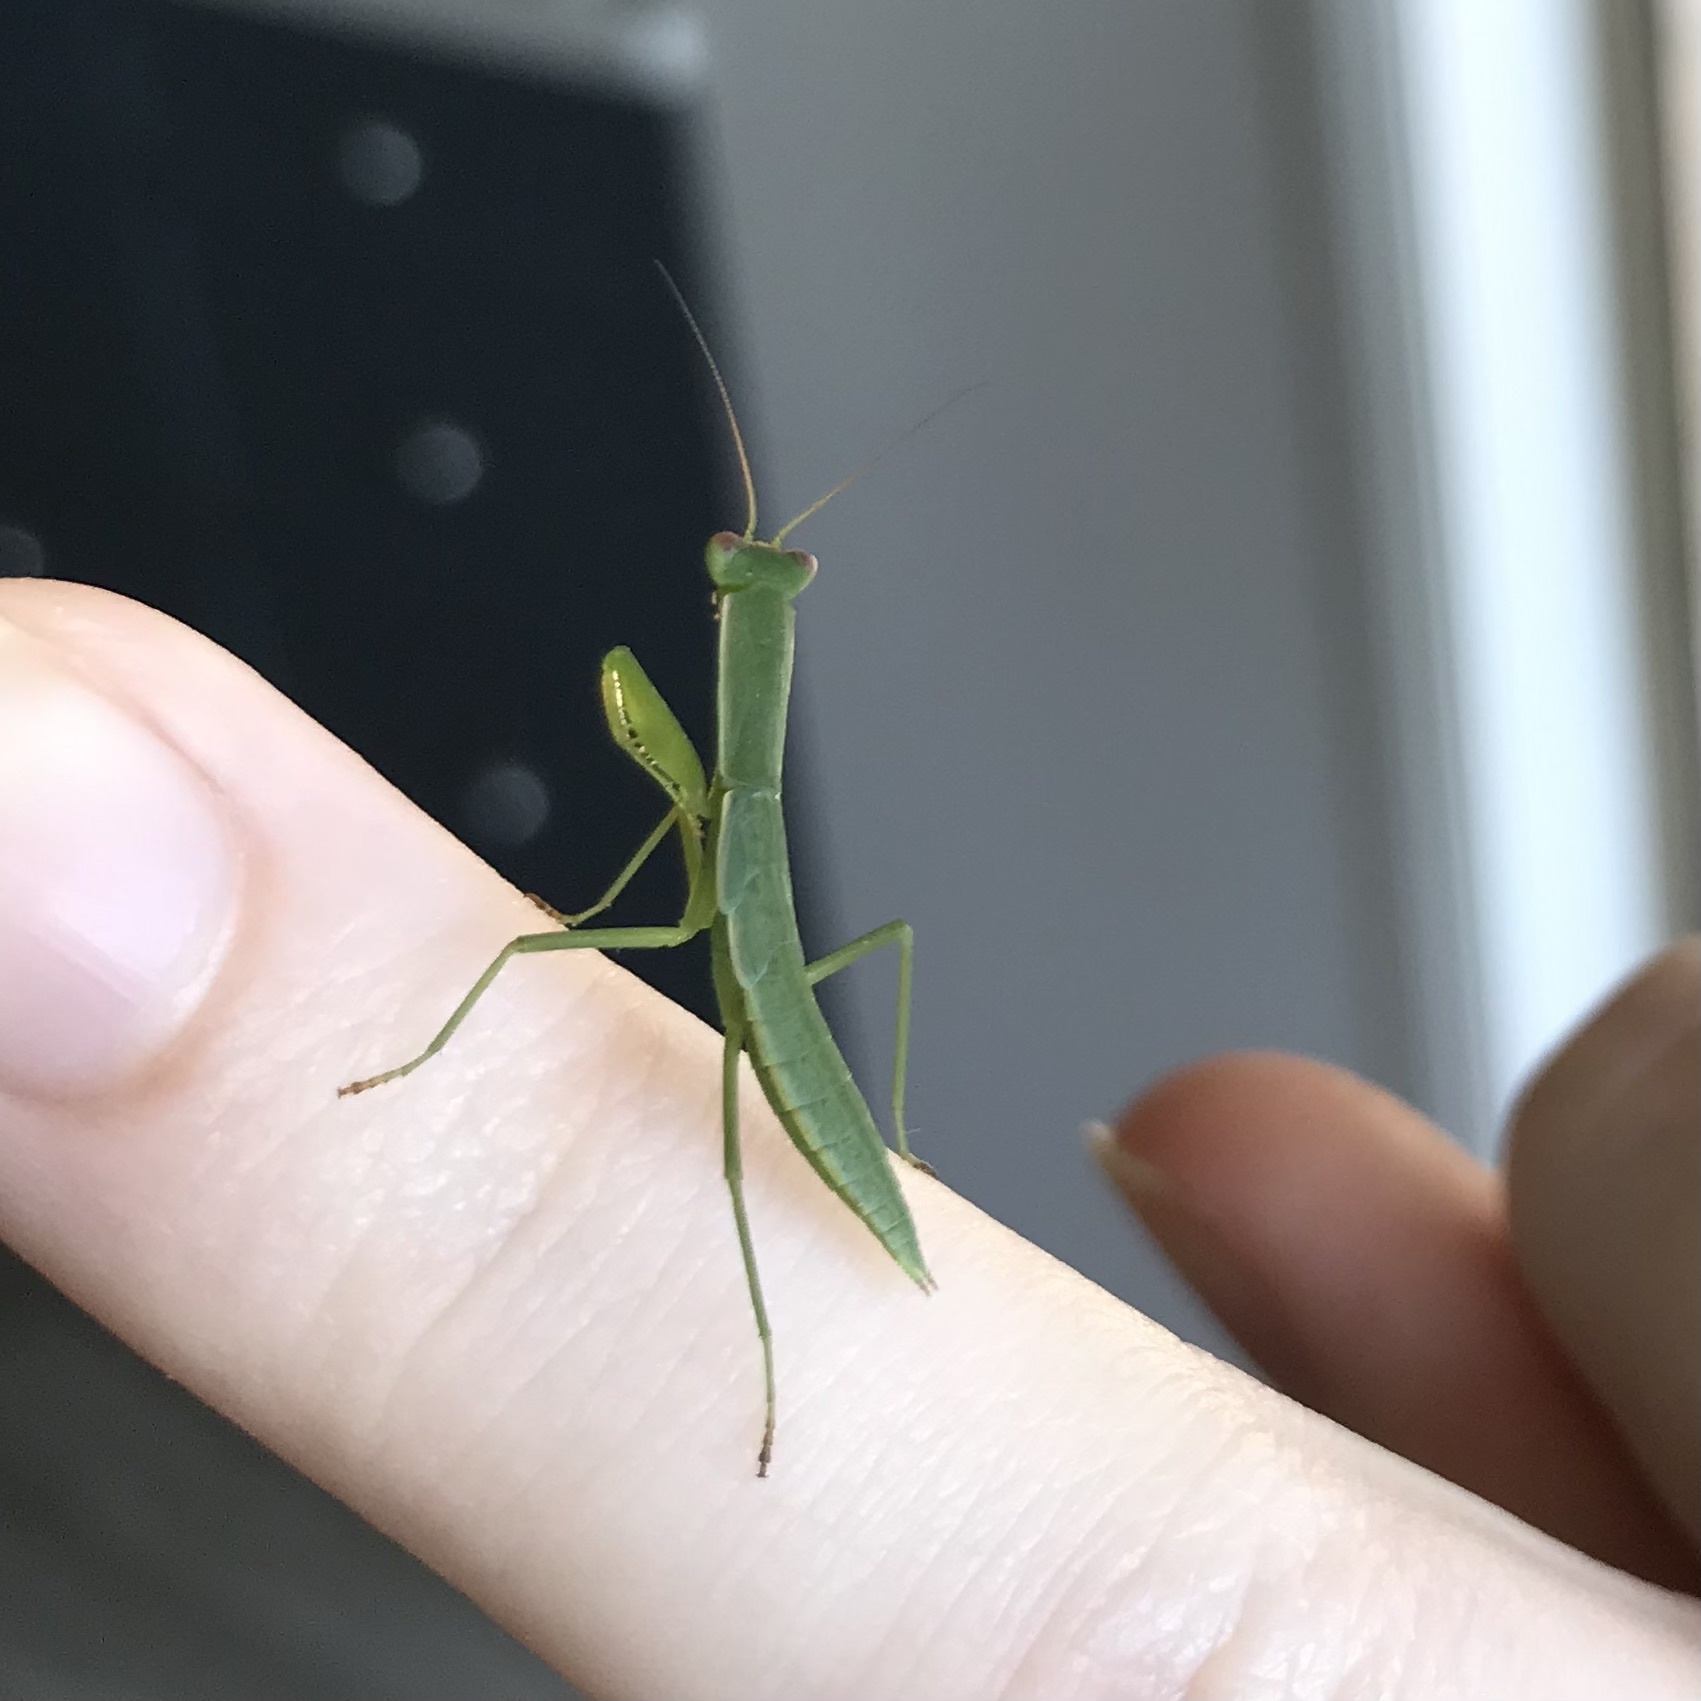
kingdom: Animalia
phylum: Arthropoda
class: Insecta
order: Mantodea
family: Mantidae
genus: Orthodera
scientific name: Orthodera ministralis
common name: Mantis
